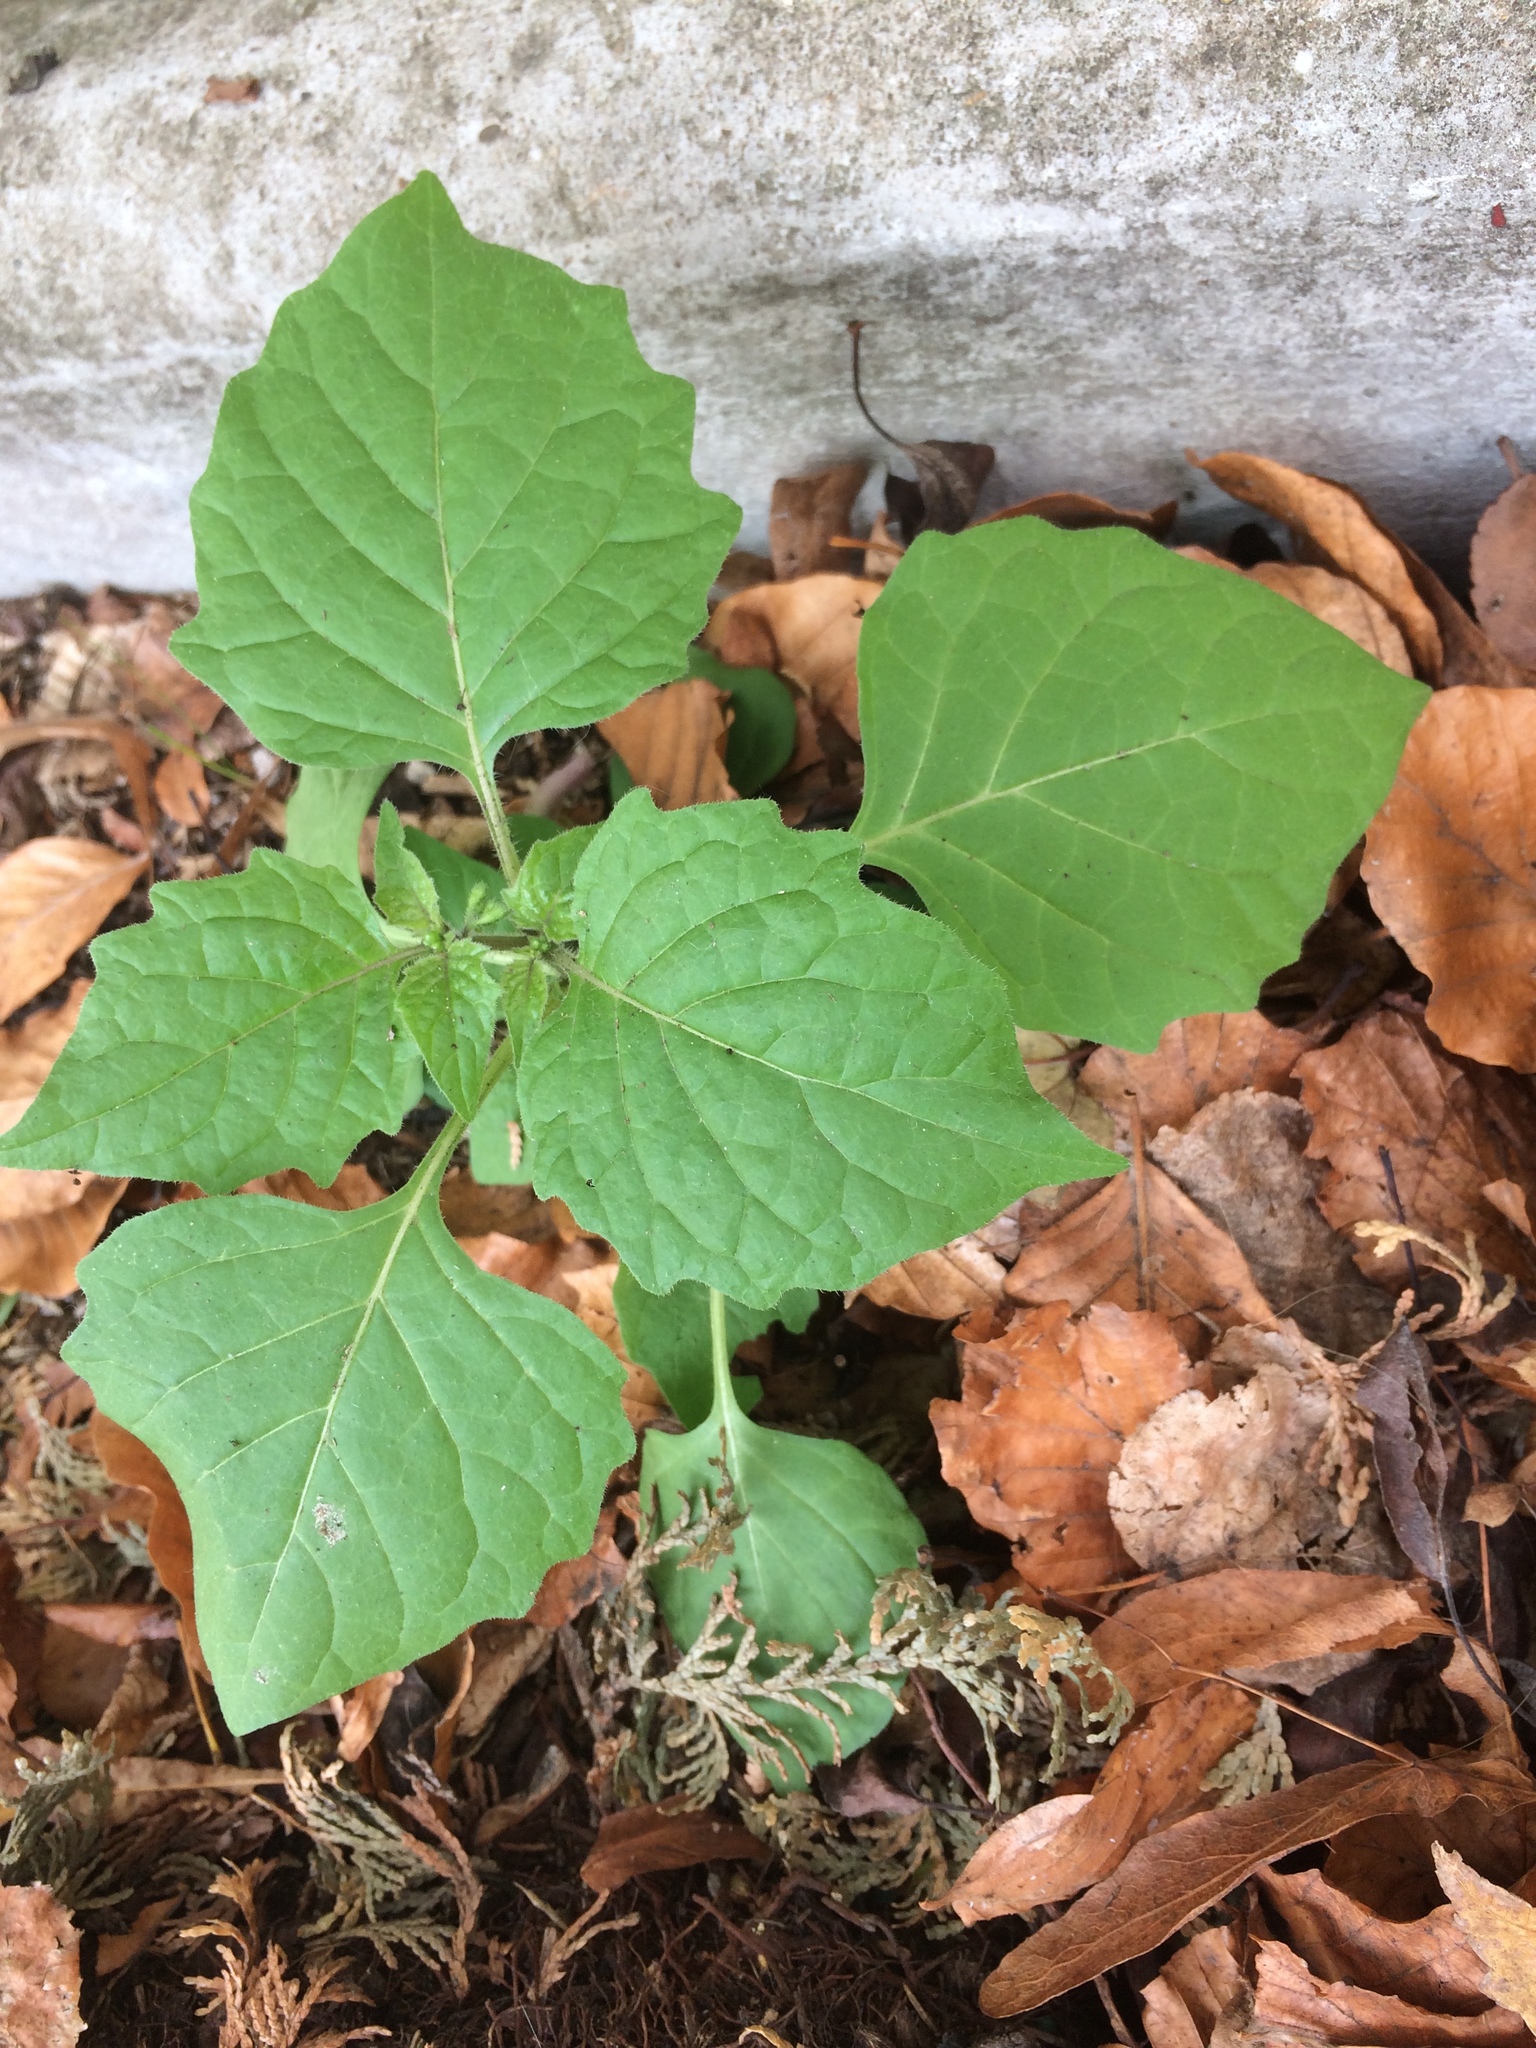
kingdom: Plantae
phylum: Tracheophyta
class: Magnoliopsida
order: Solanales
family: Solanaceae
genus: Solanum
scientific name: Solanum nigrum
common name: Black nightshade
